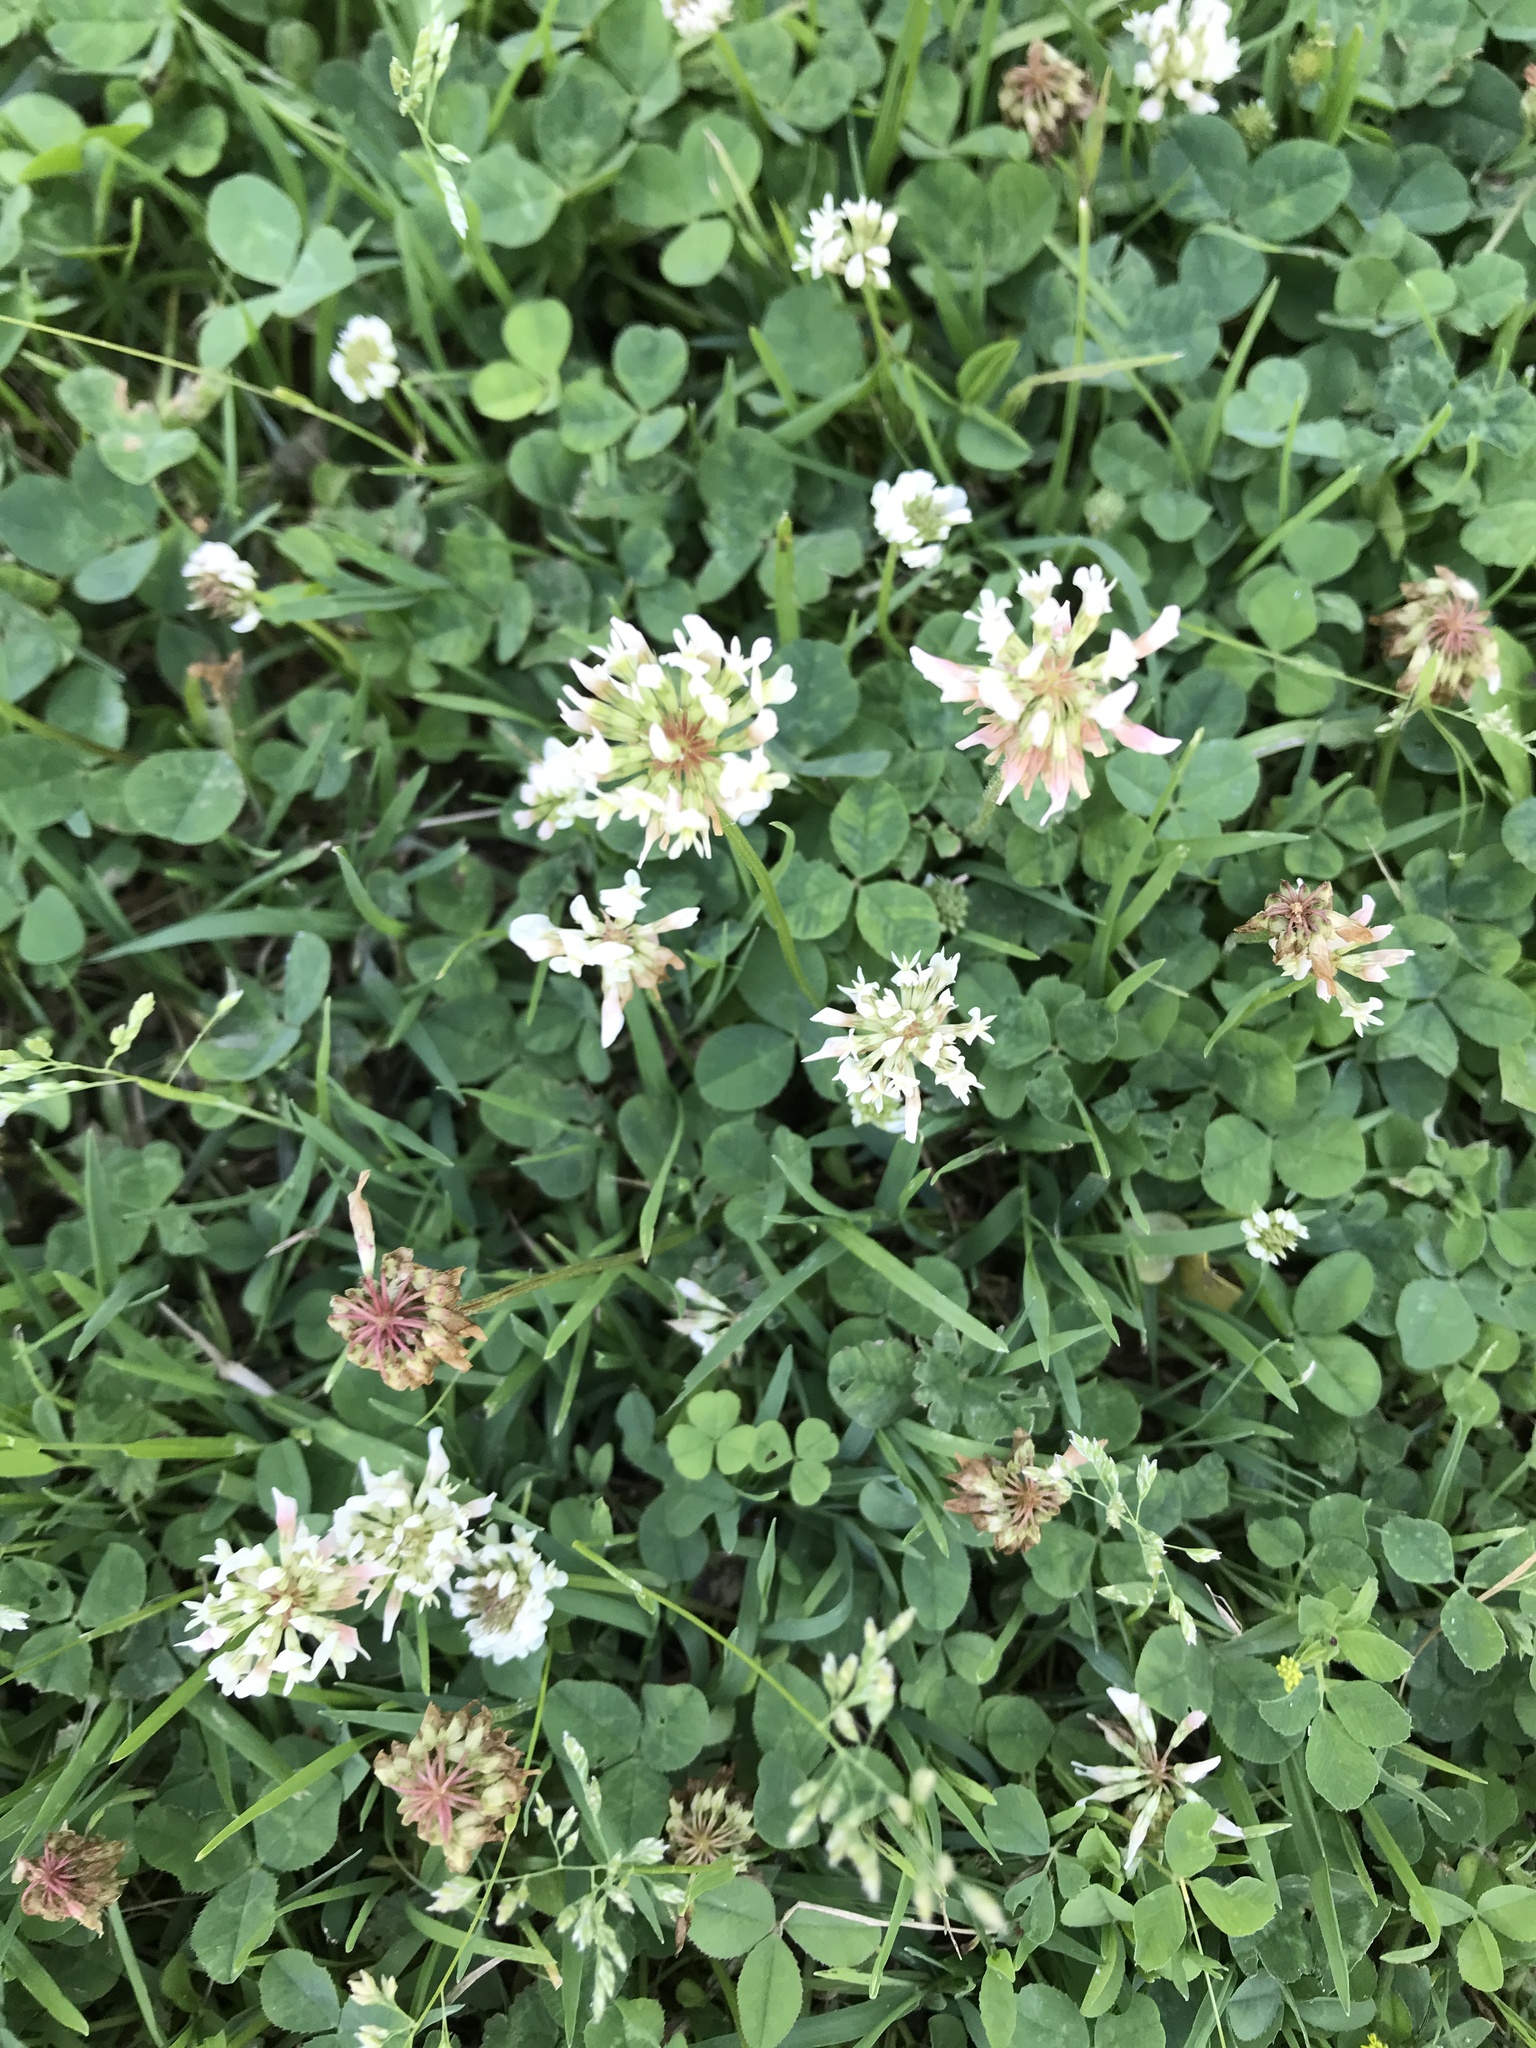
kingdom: Plantae
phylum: Tracheophyta
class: Magnoliopsida
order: Fabales
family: Fabaceae
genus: Trifolium
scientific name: Trifolium repens
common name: White clover
